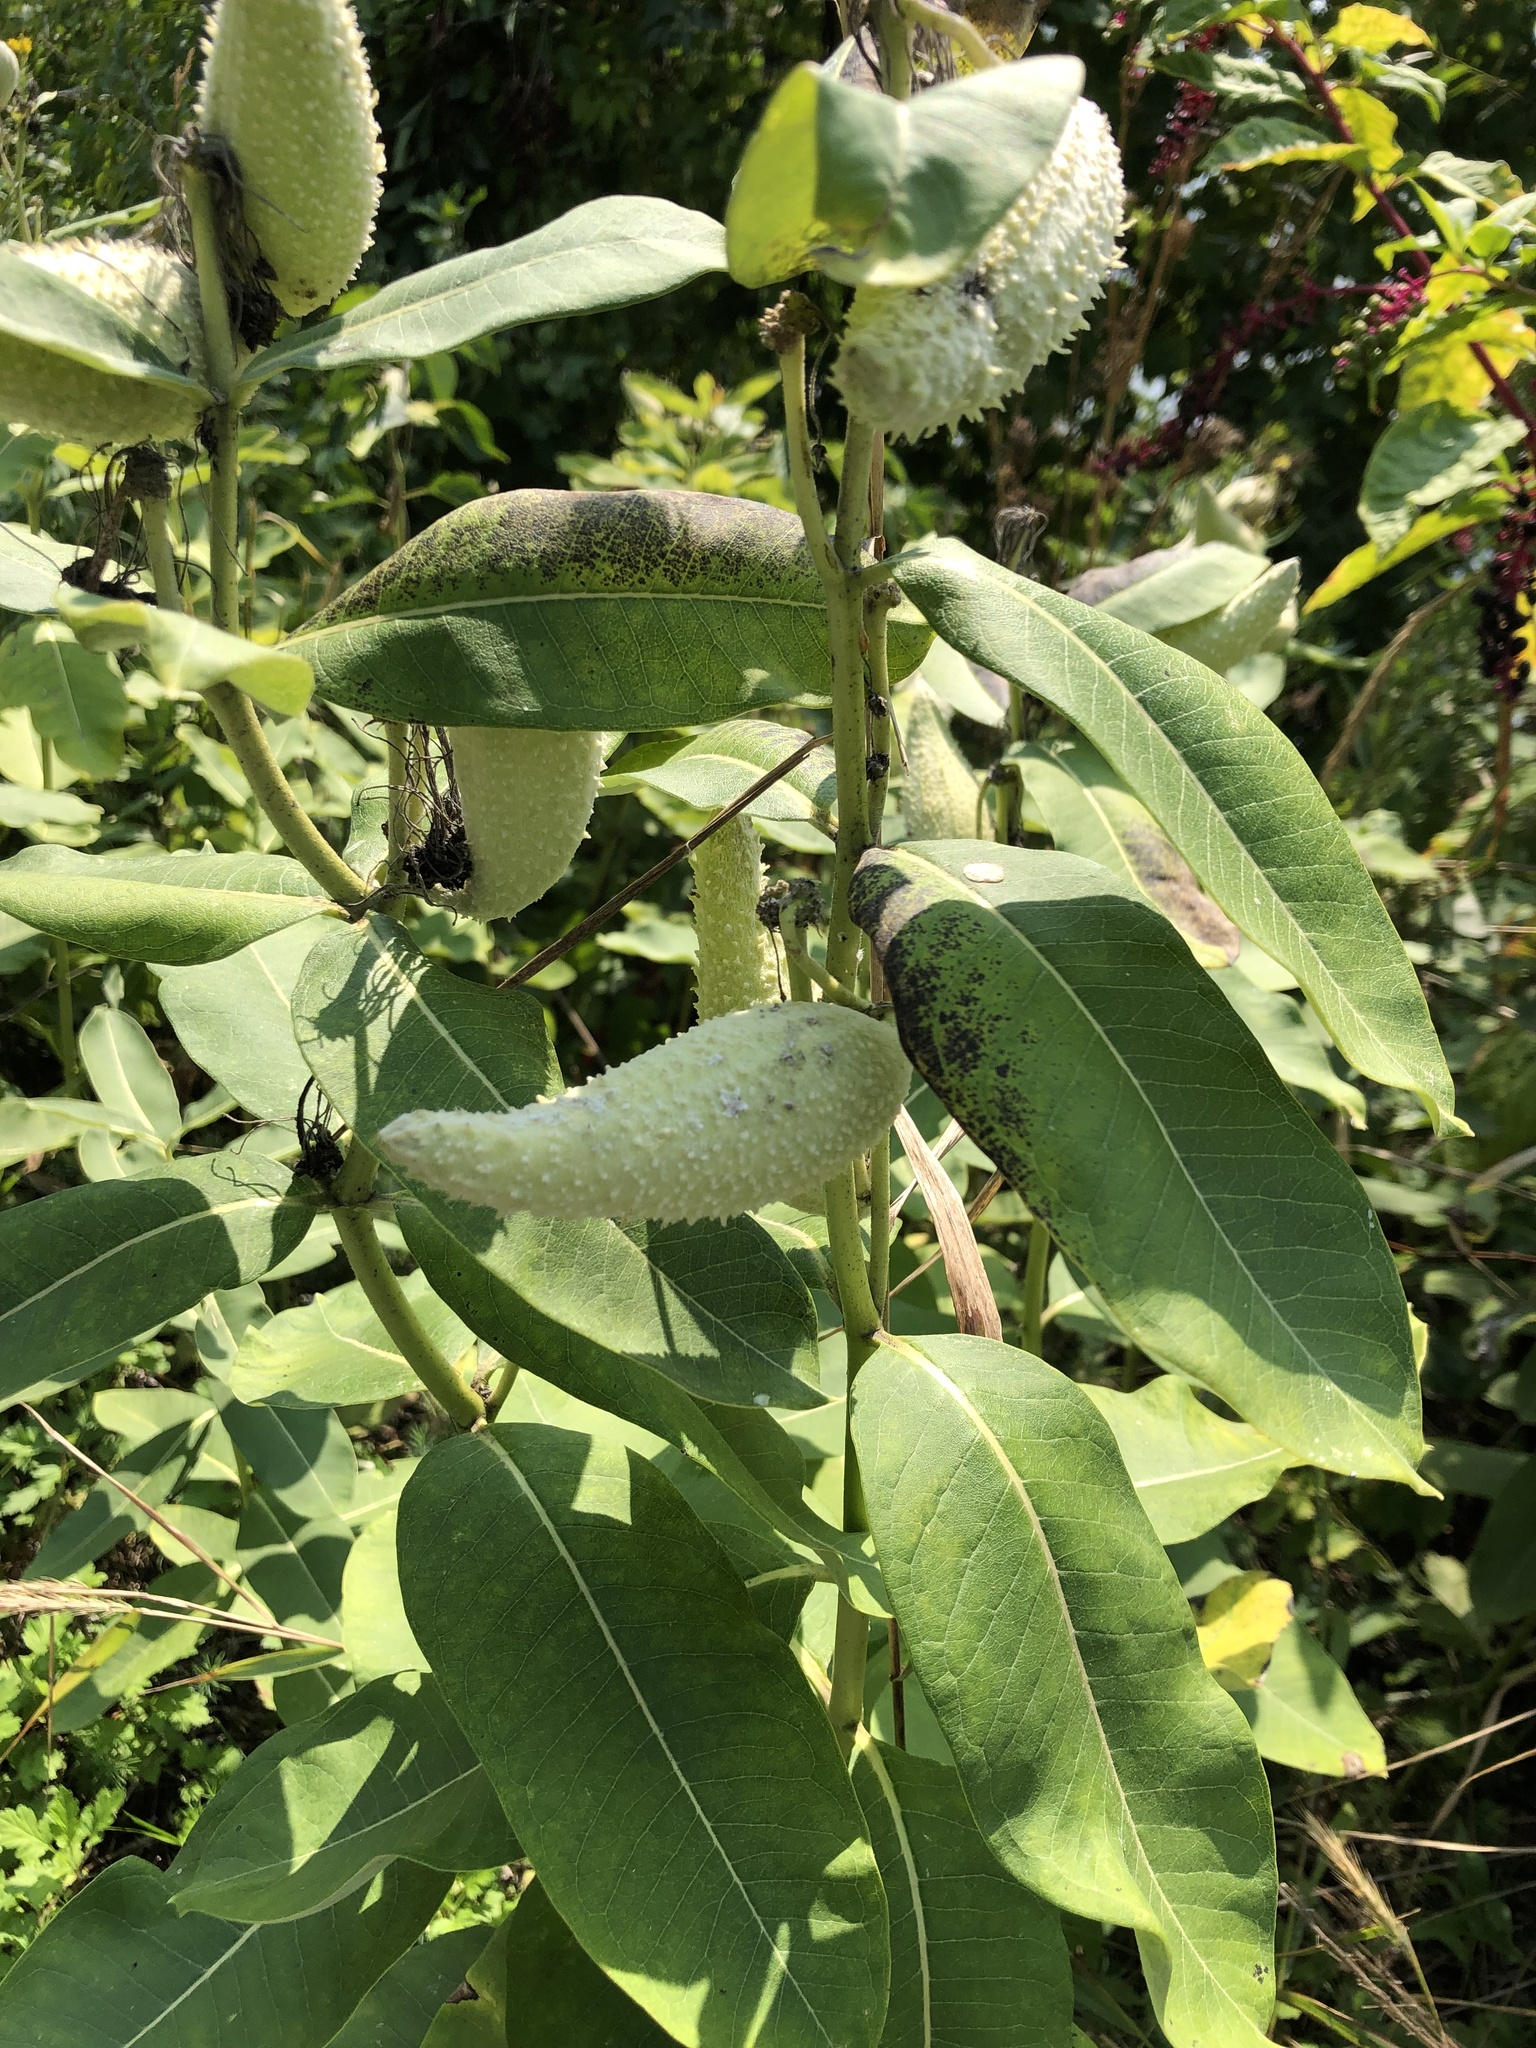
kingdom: Plantae
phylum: Tracheophyta
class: Magnoliopsida
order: Gentianales
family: Apocynaceae
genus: Asclepias
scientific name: Asclepias syriaca
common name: Common milkweed
